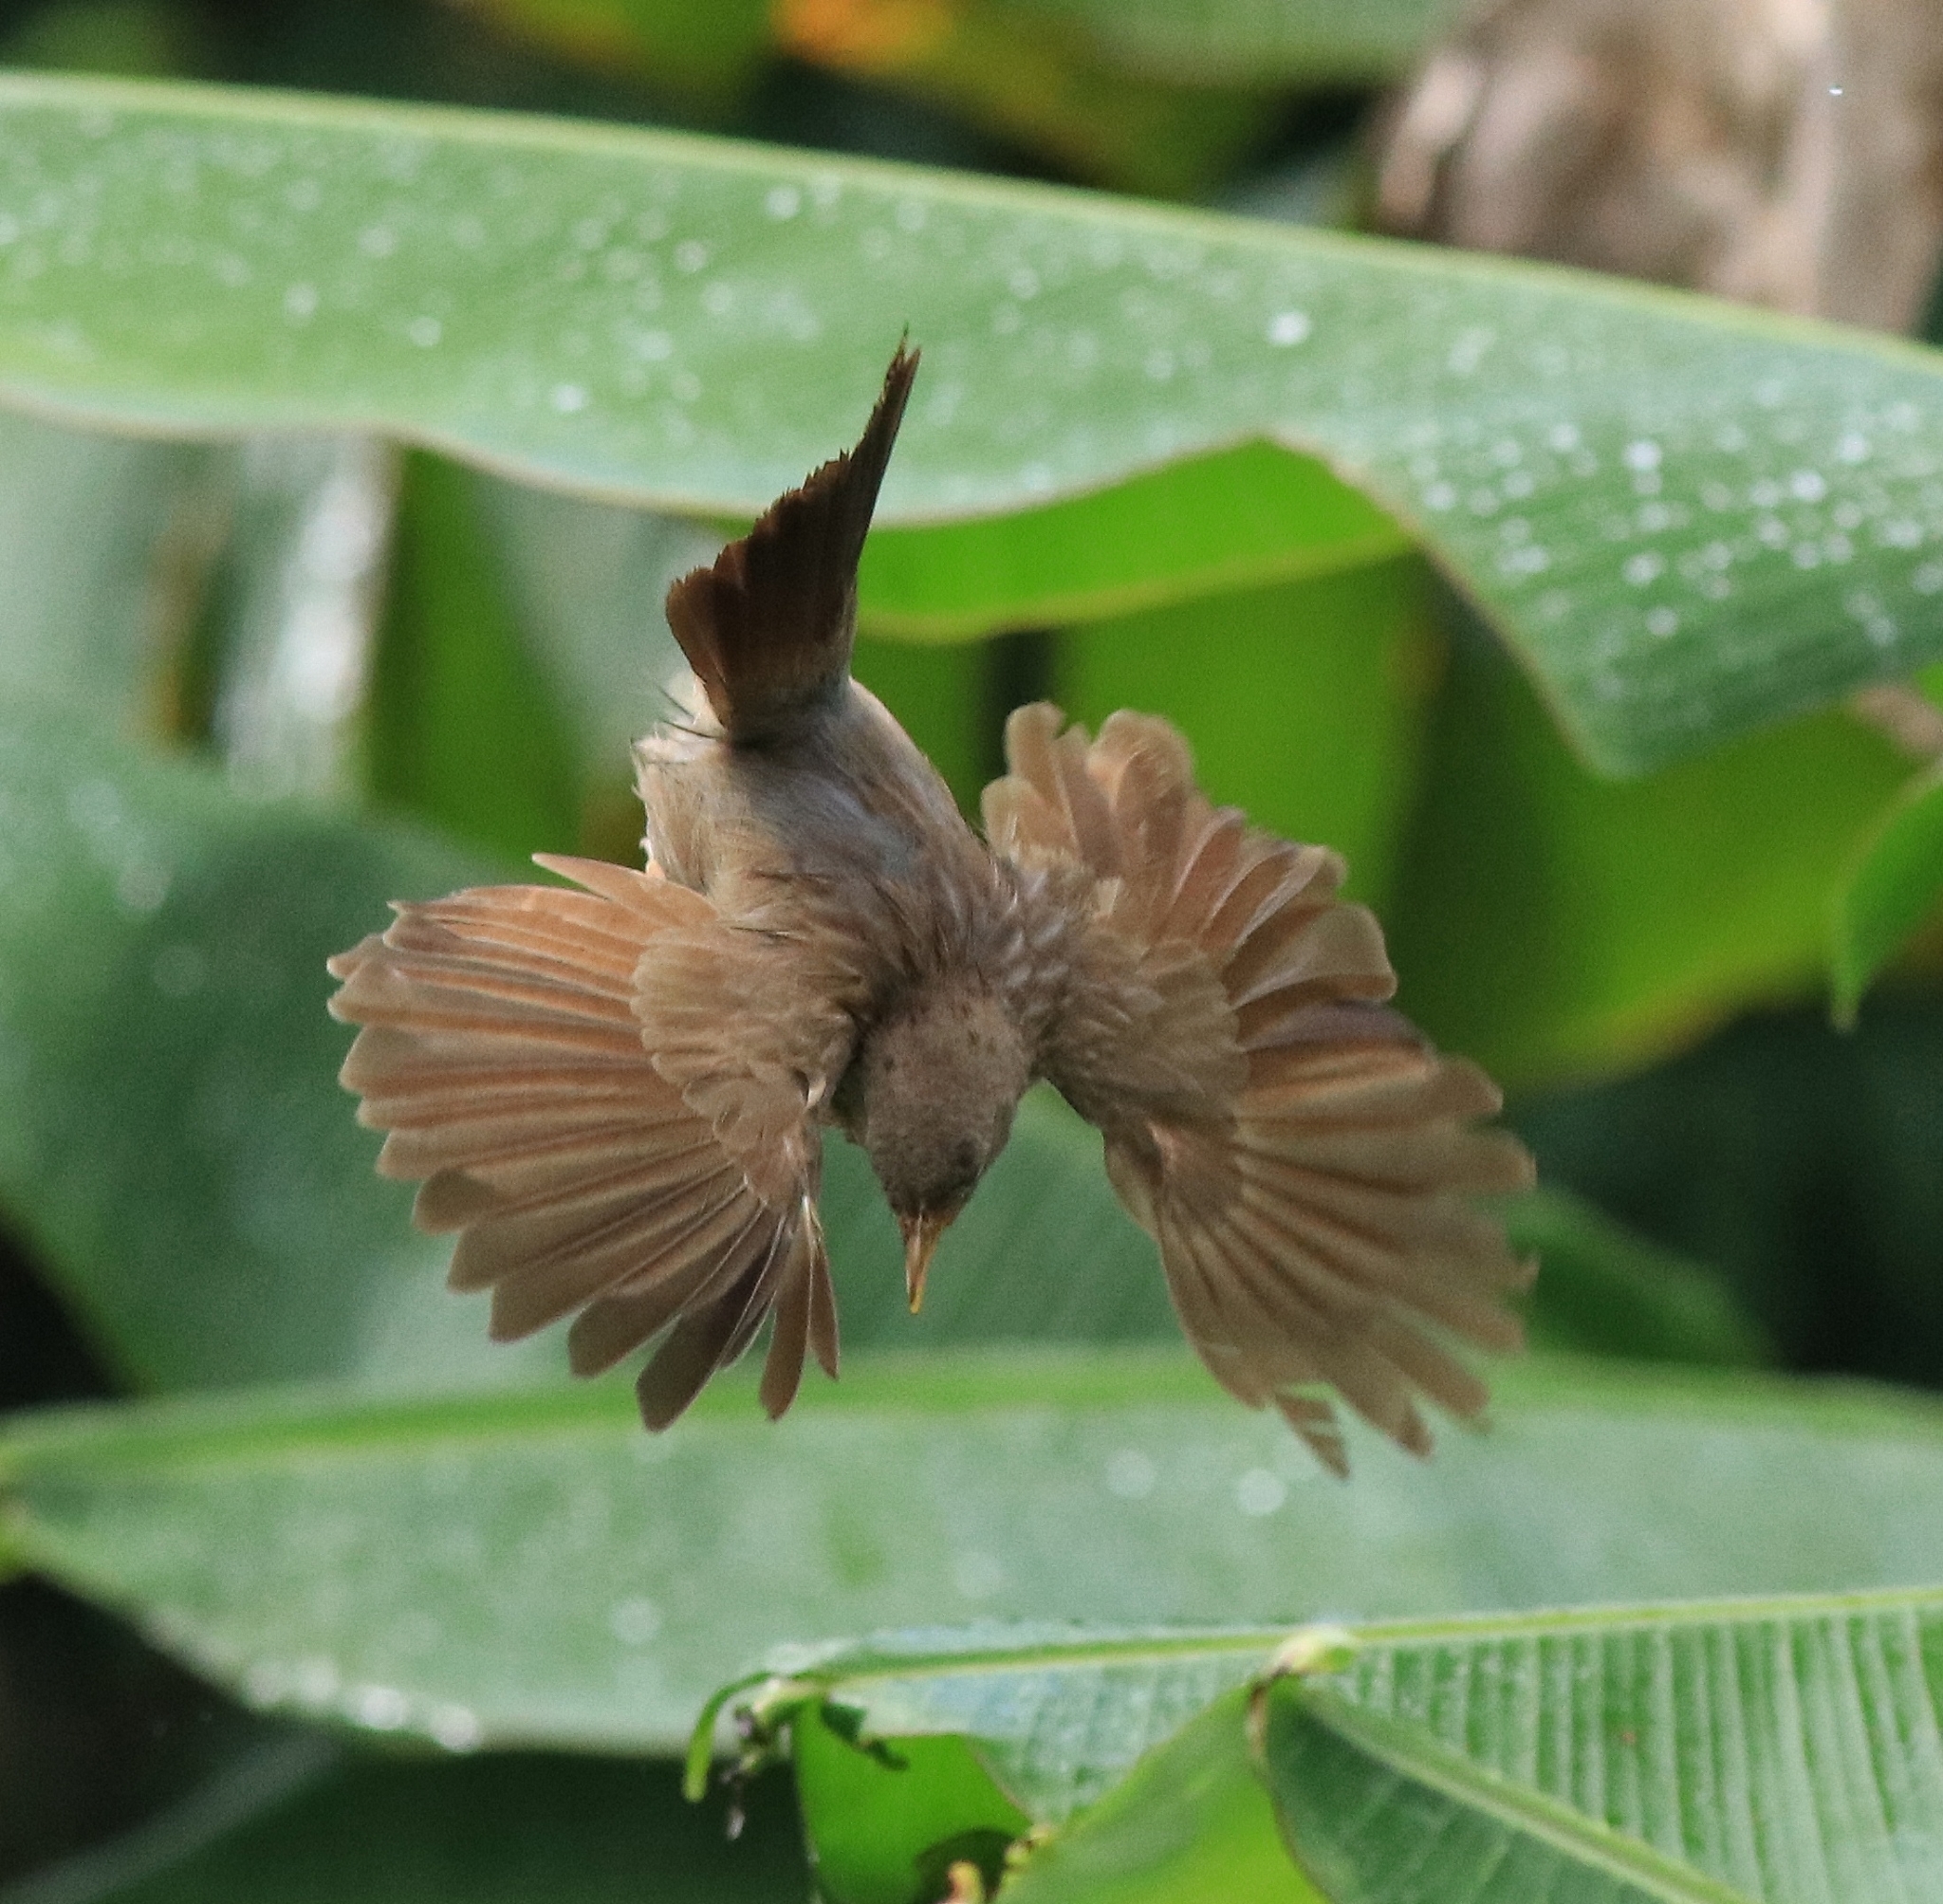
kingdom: Animalia
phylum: Chordata
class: Aves
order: Passeriformes
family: Leiothrichidae
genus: Turdoides
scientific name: Turdoides striata
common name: Jungle babbler
